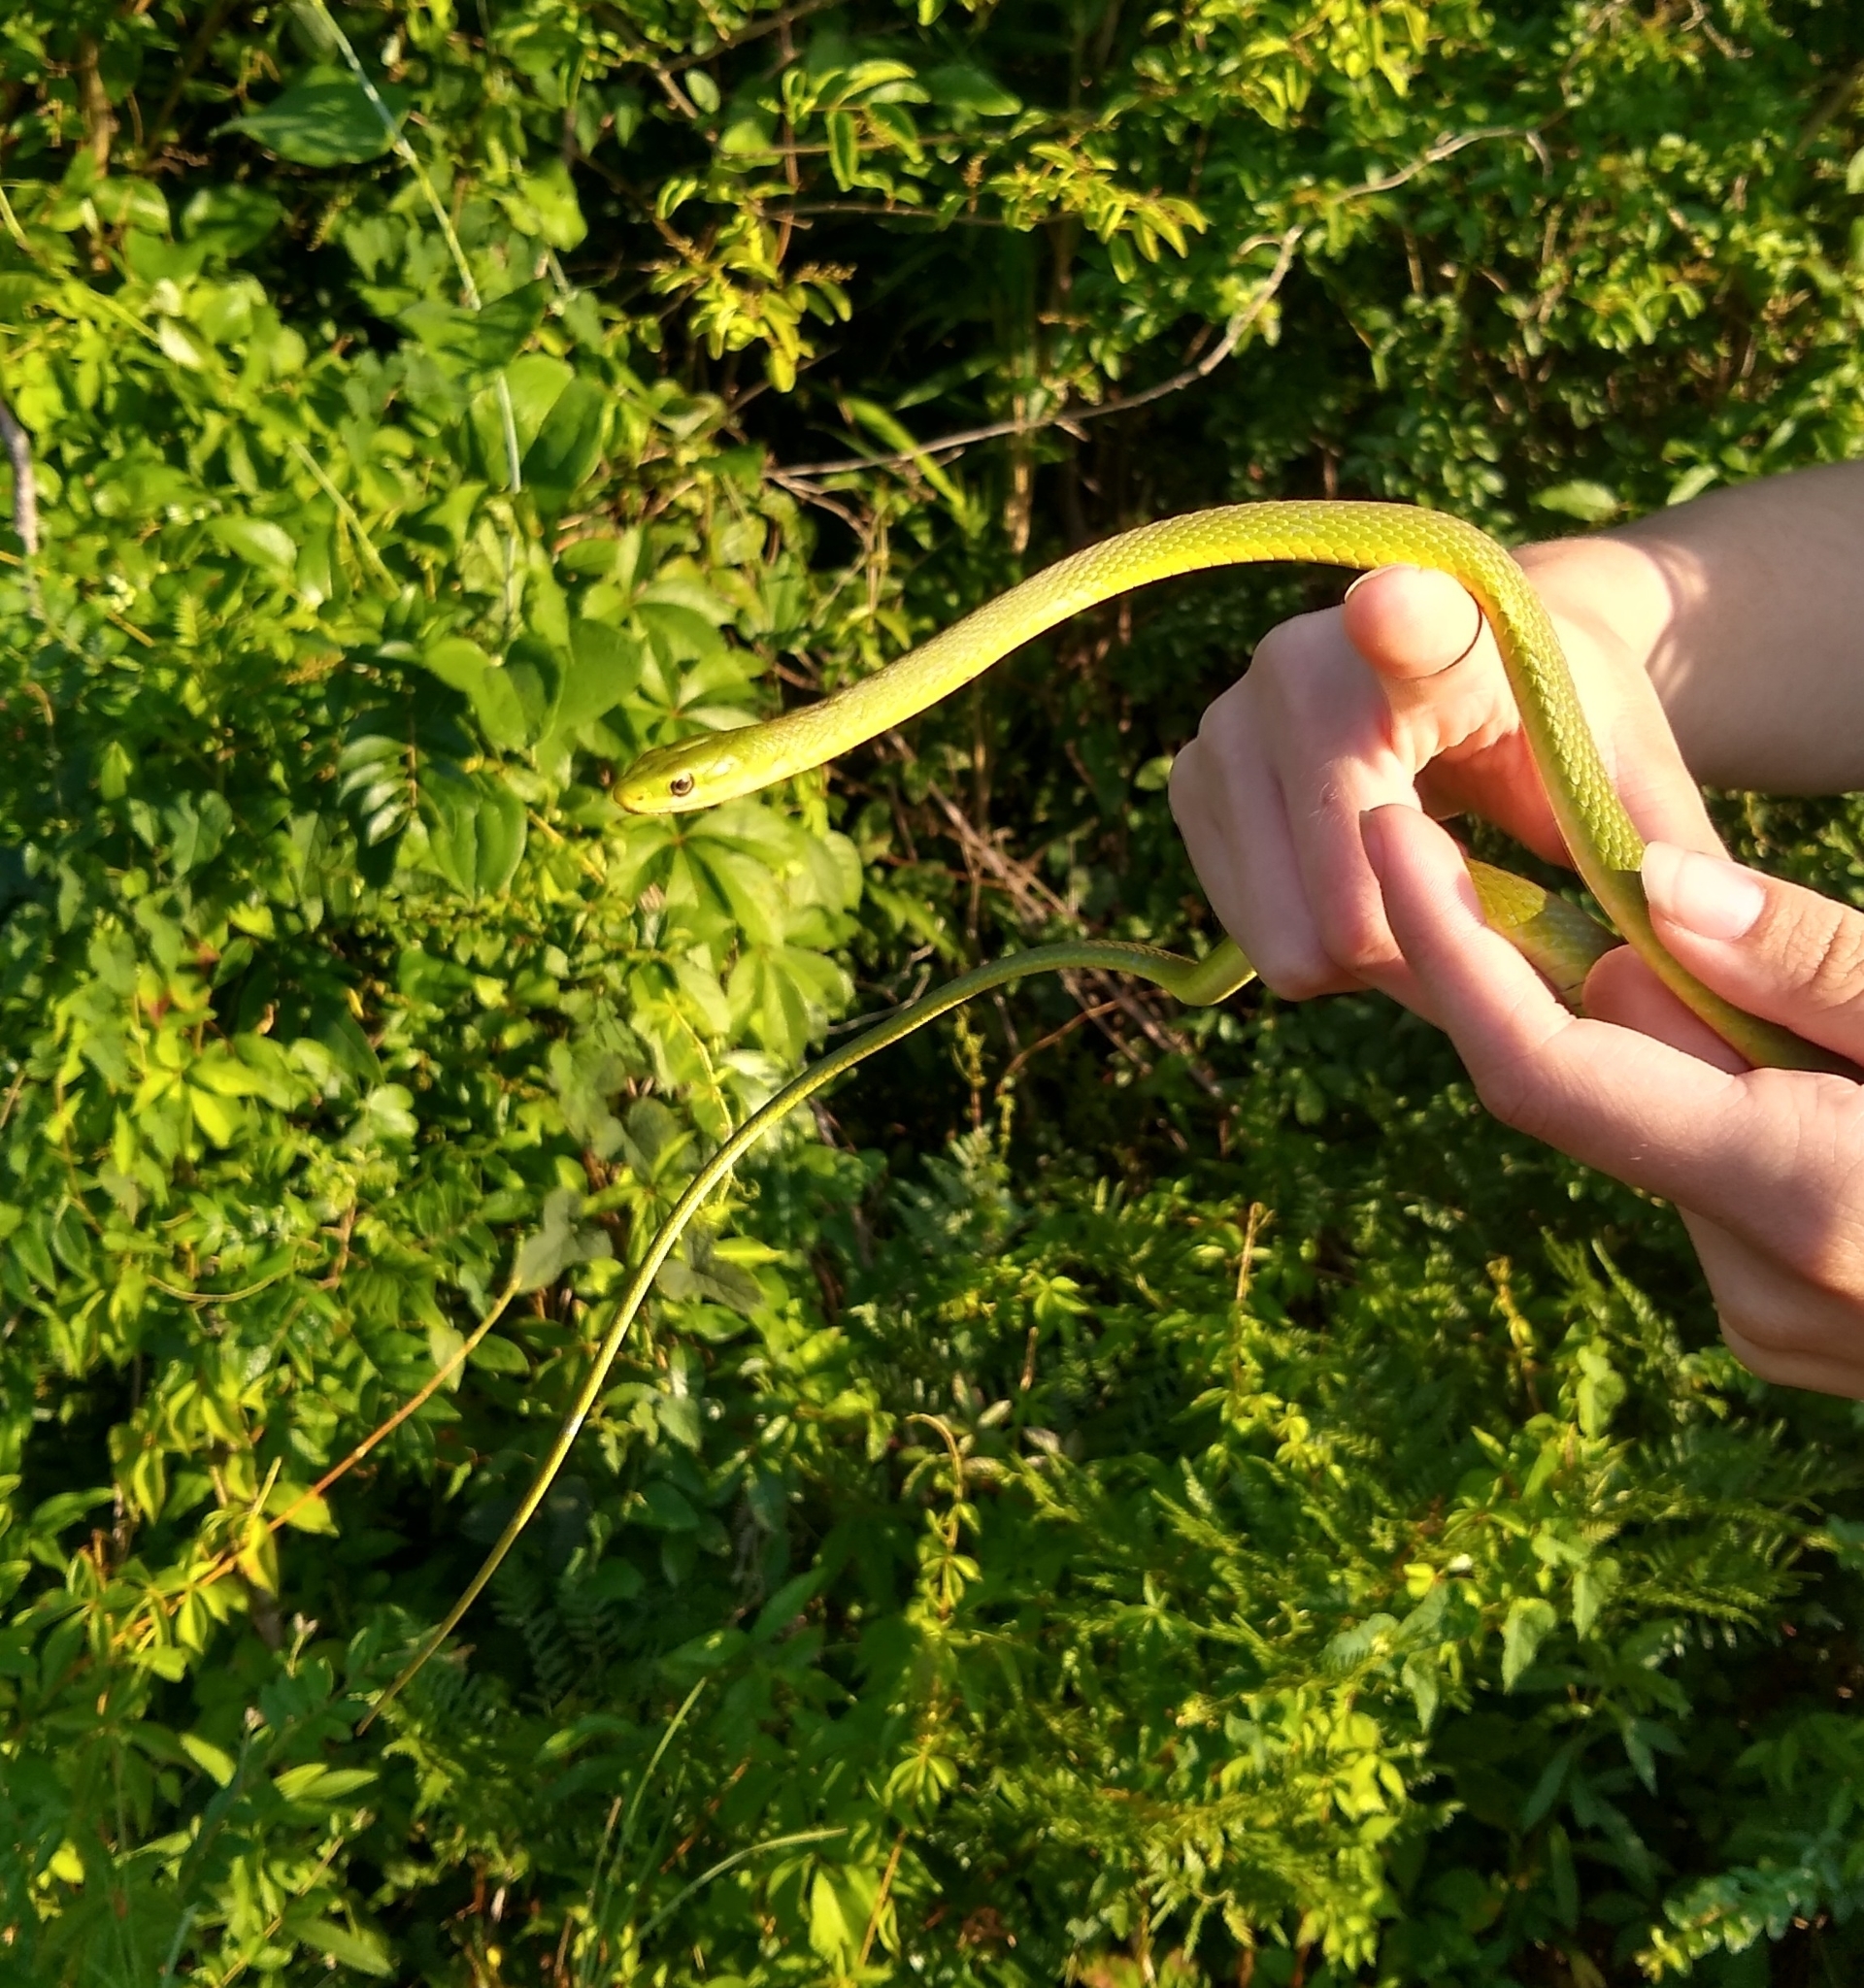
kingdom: Animalia
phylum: Chordata
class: Squamata
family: Colubridae
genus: Opheodrys
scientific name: Opheodrys aestivus
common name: Rough greensnake
